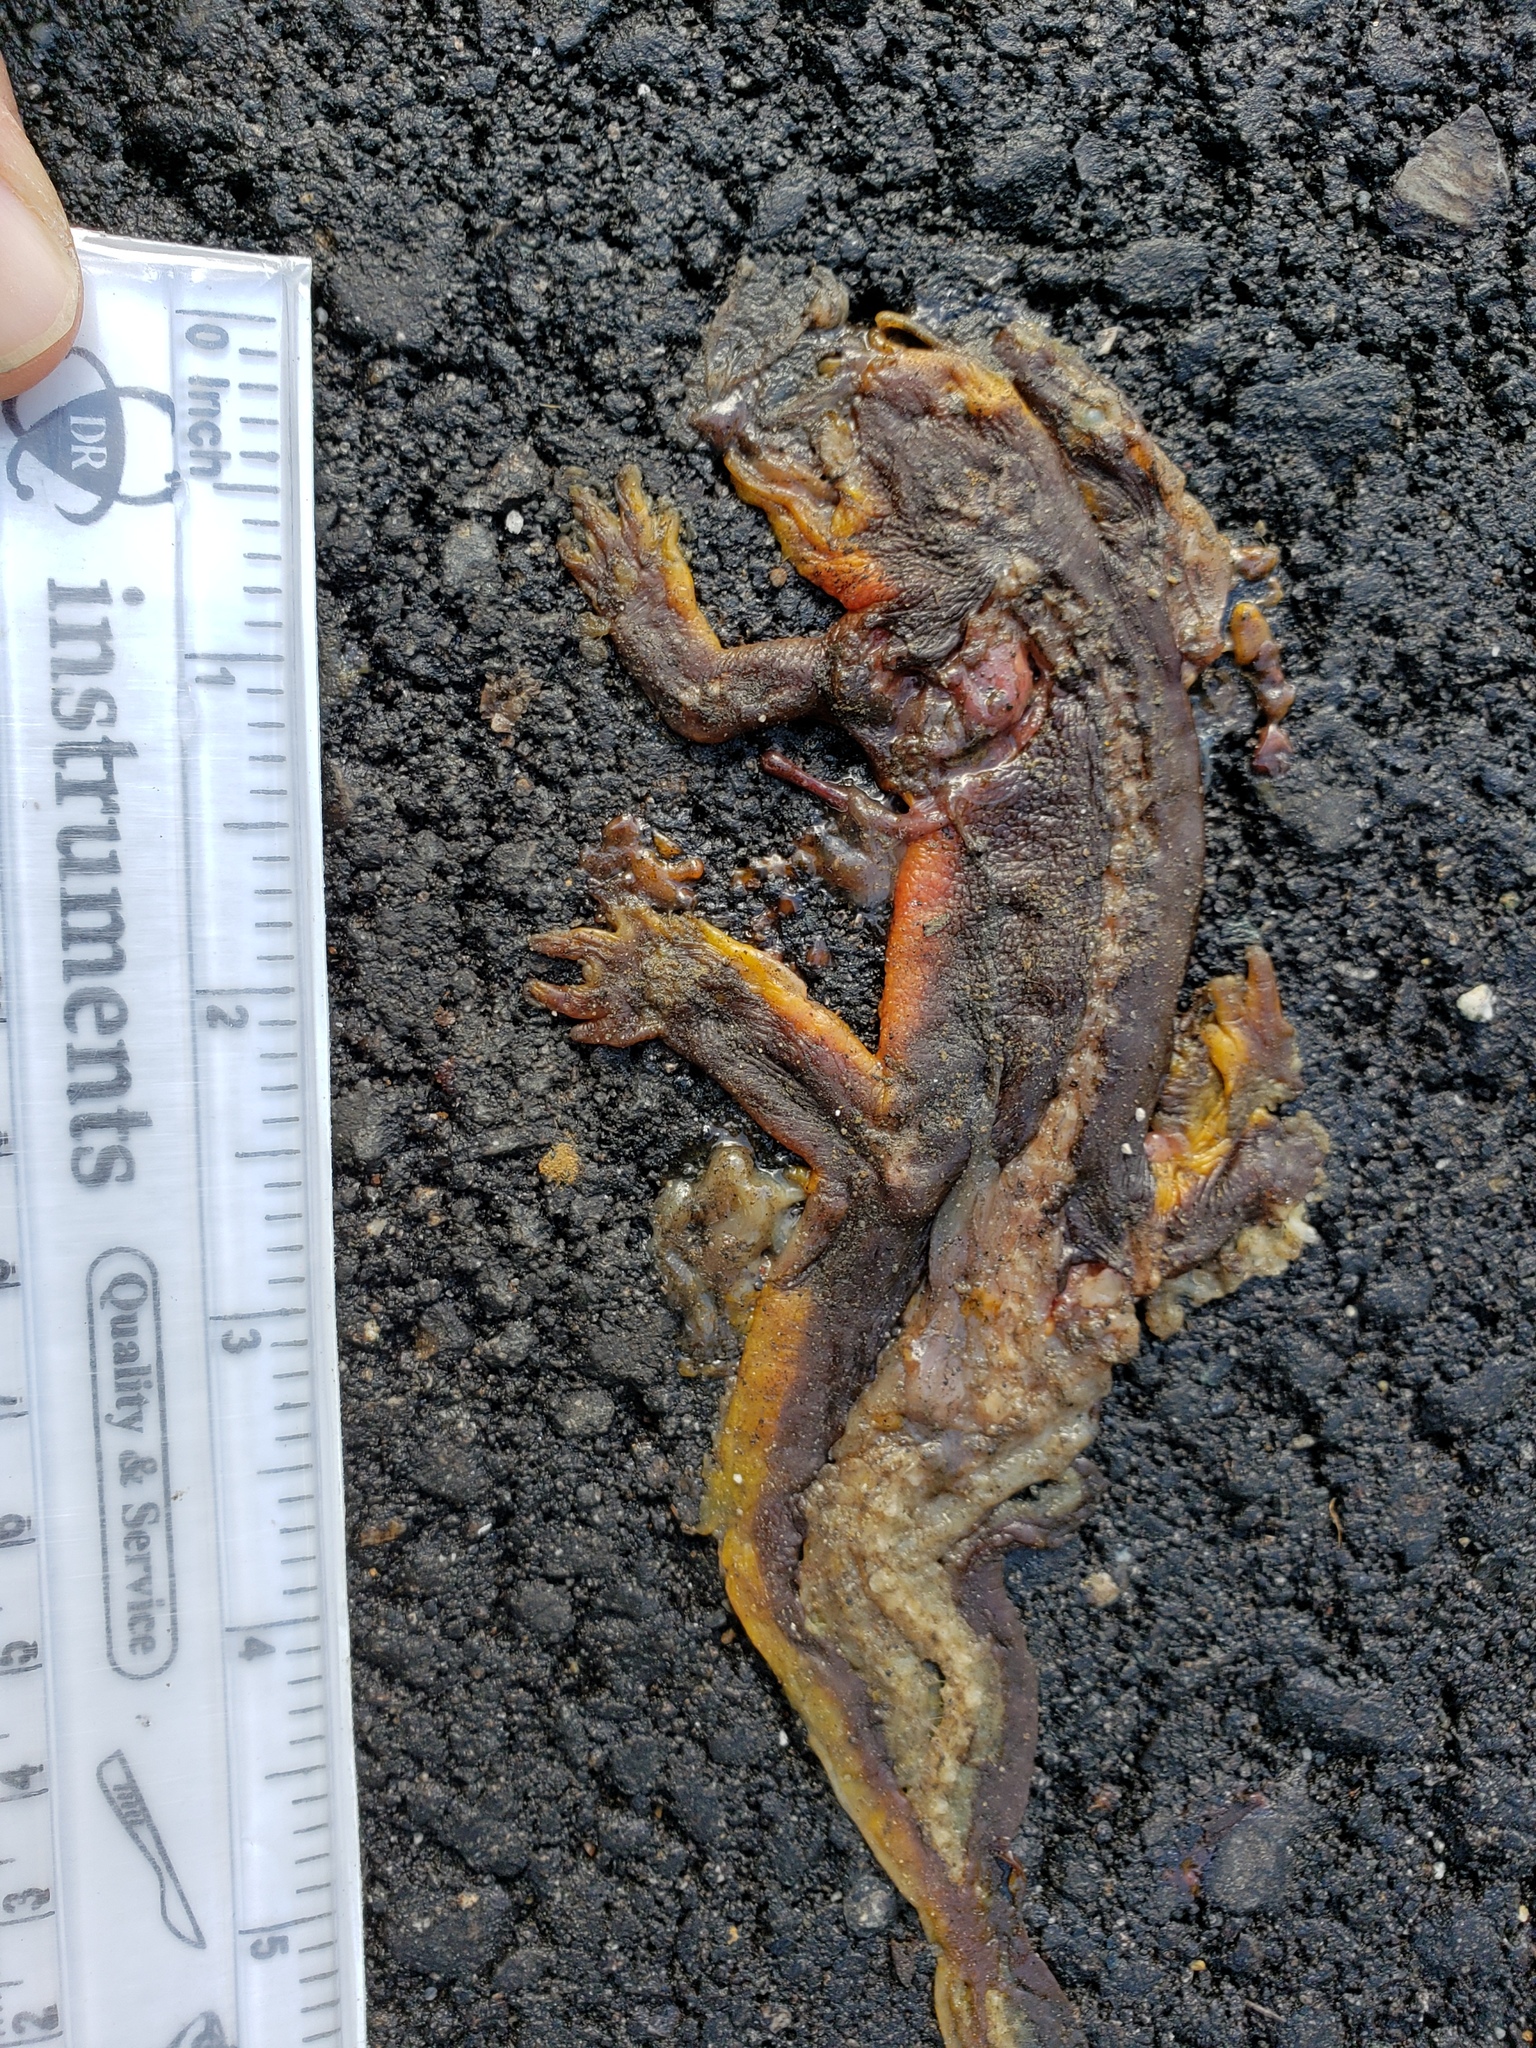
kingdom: Animalia
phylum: Chordata
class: Amphibia
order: Caudata
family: Salamandridae
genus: Taricha
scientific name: Taricha
